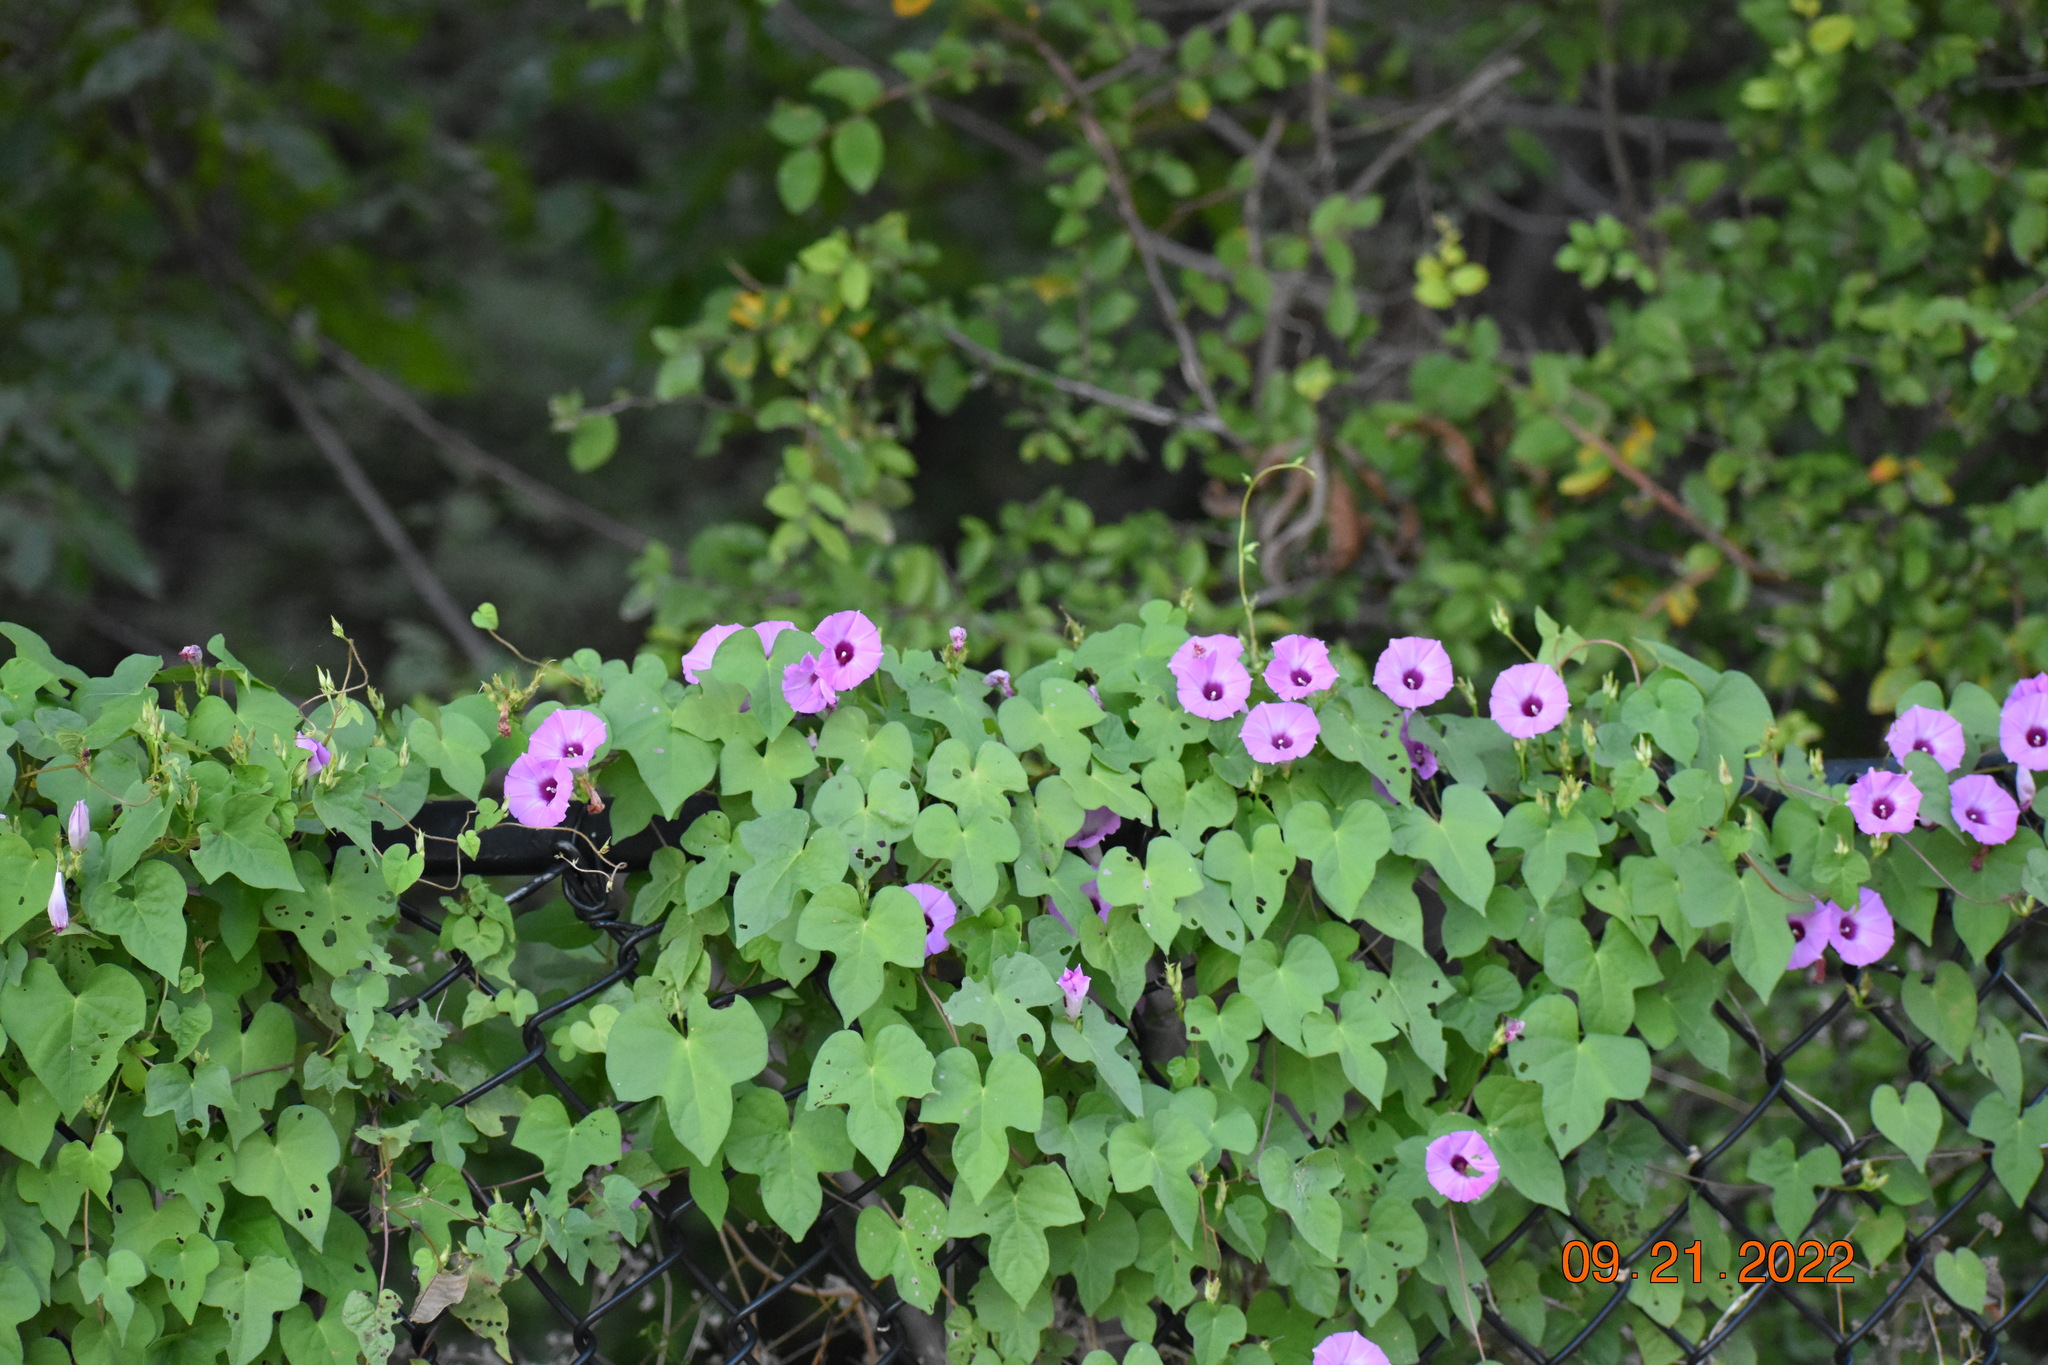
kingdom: Plantae
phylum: Tracheophyta
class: Magnoliopsida
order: Solanales
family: Convolvulaceae
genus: Ipomoea
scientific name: Ipomoea cordatotriloba
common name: Cotton morning glory
